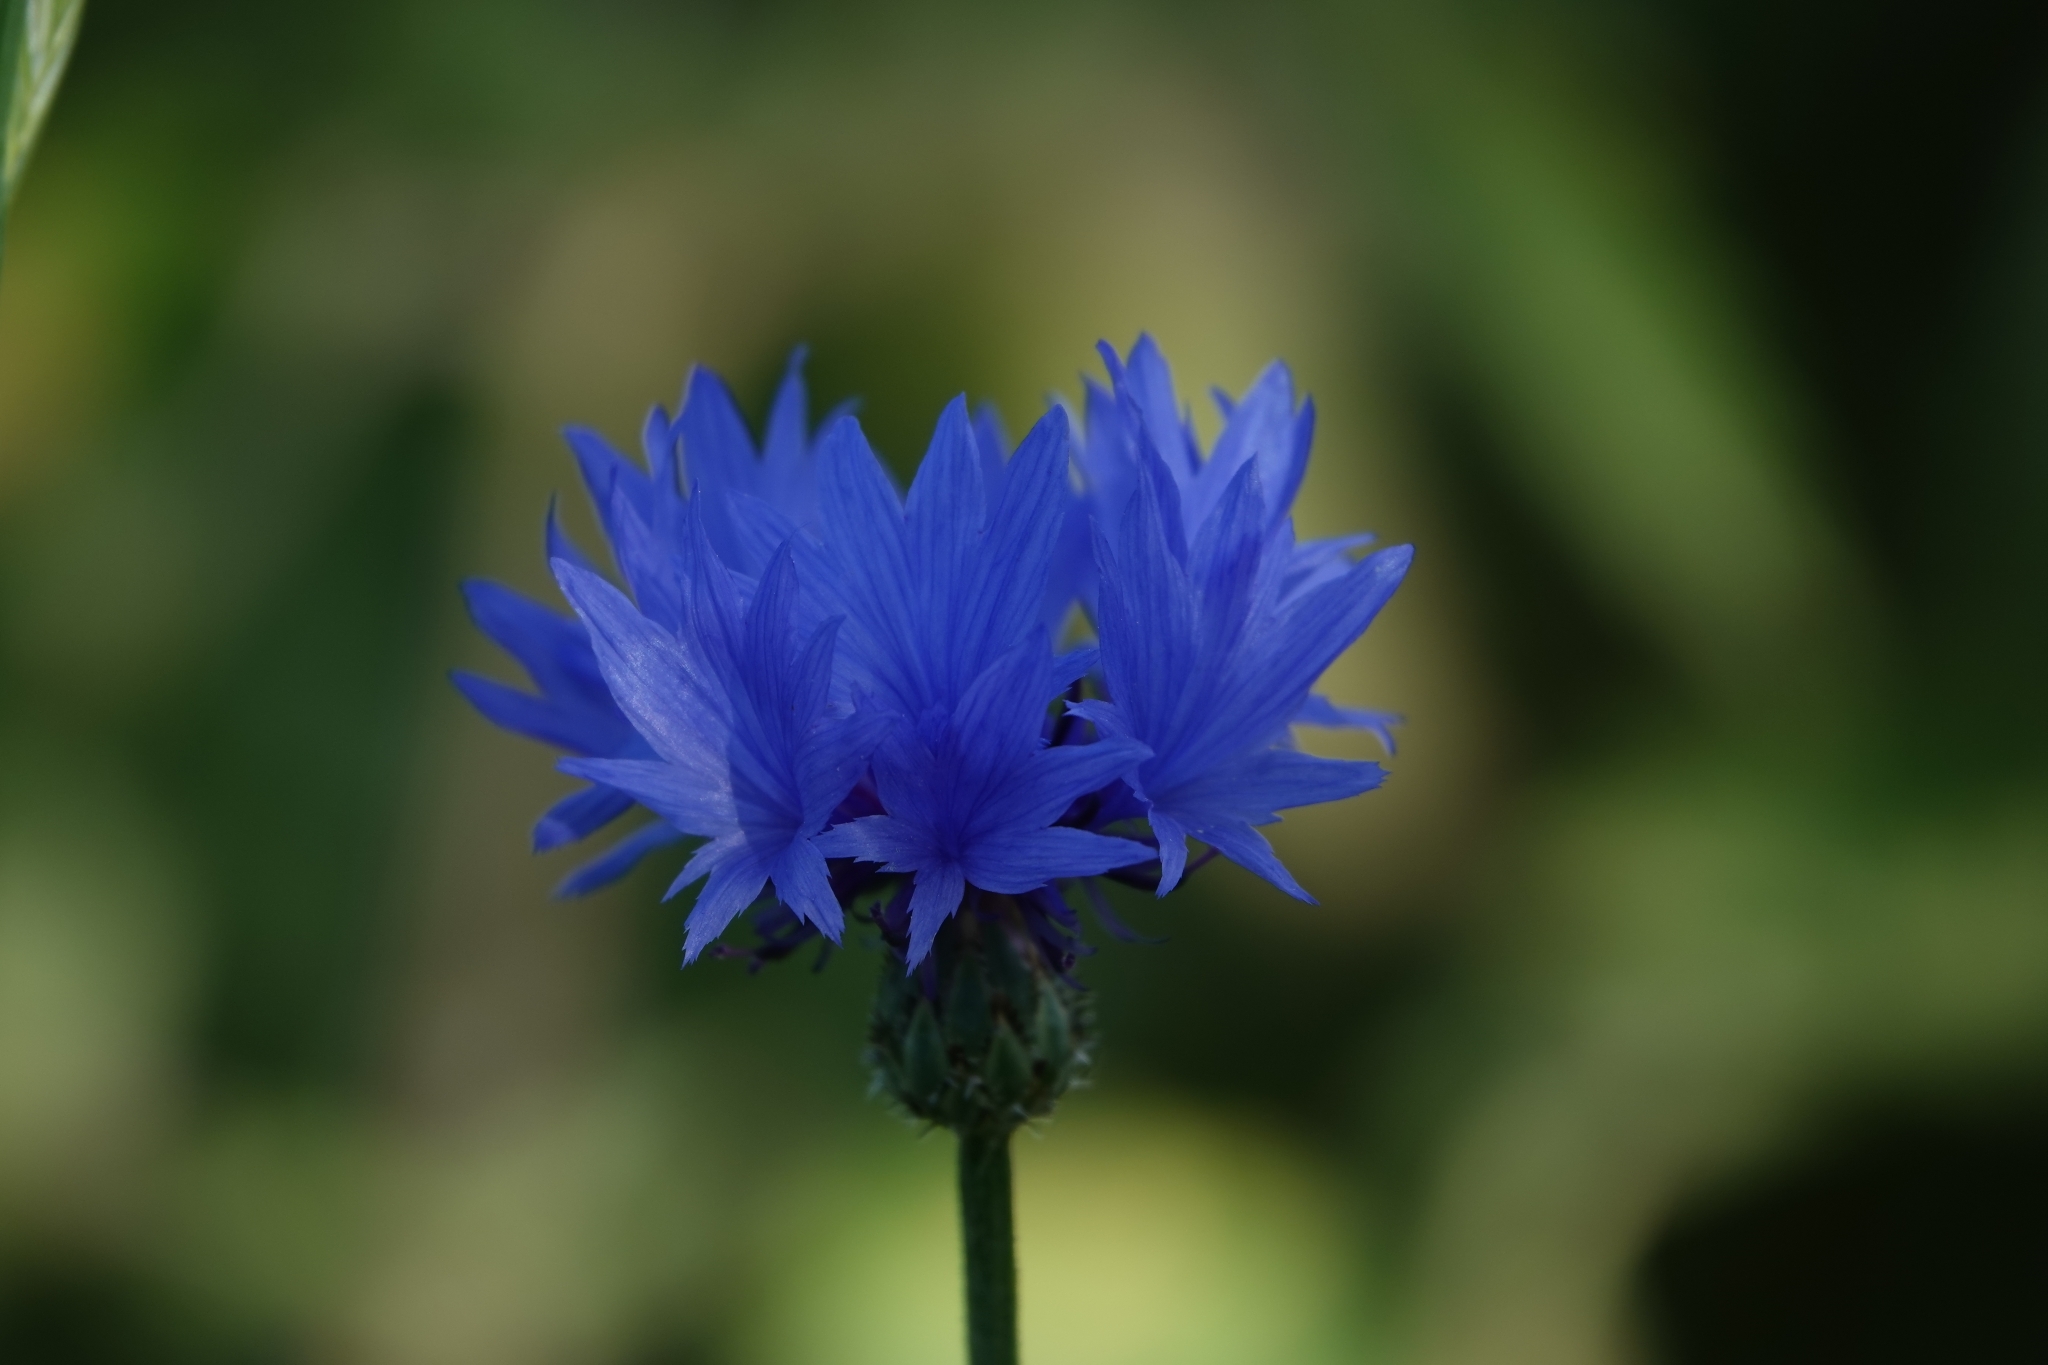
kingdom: Plantae
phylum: Tracheophyta
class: Magnoliopsida
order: Asterales
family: Asteraceae
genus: Centaurea
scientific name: Centaurea cyanus
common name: Cornflower
